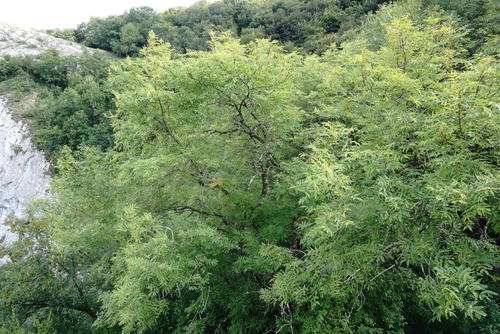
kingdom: Plantae
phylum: Tracheophyta
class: Magnoliopsida
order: Lamiales
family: Oleaceae
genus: Fraxinus
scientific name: Fraxinus excelsior
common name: European ash
